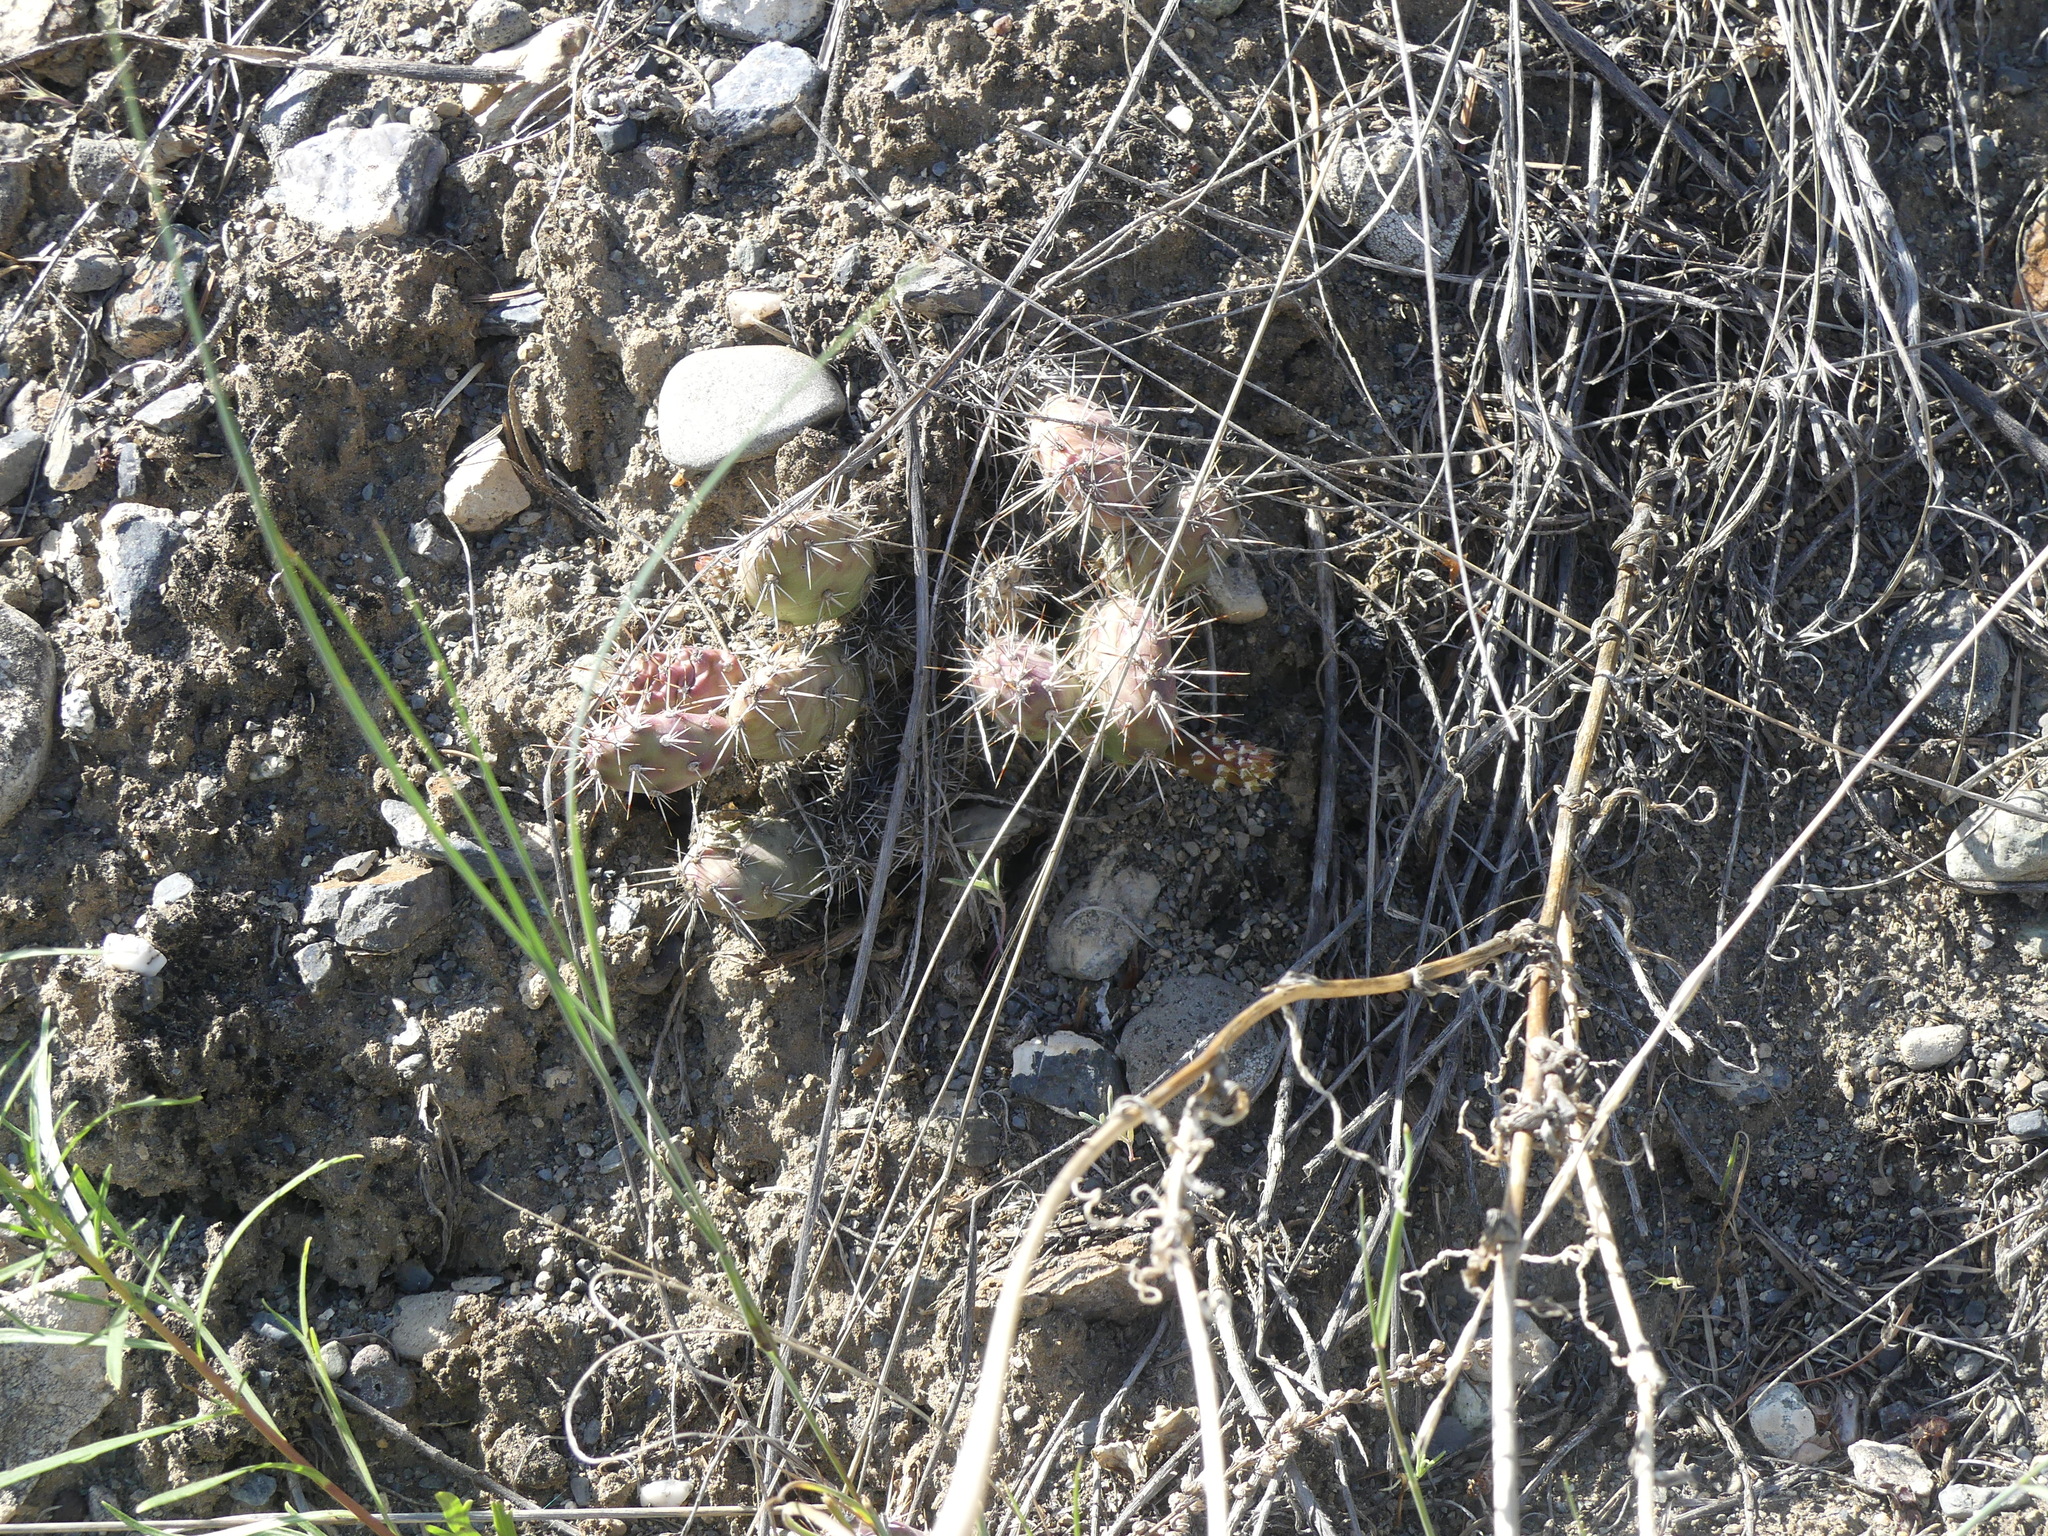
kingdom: Plantae
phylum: Tracheophyta
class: Magnoliopsida
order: Caryophyllales
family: Cactaceae
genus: Opuntia
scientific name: Opuntia fragilis
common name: Brittle cactus
